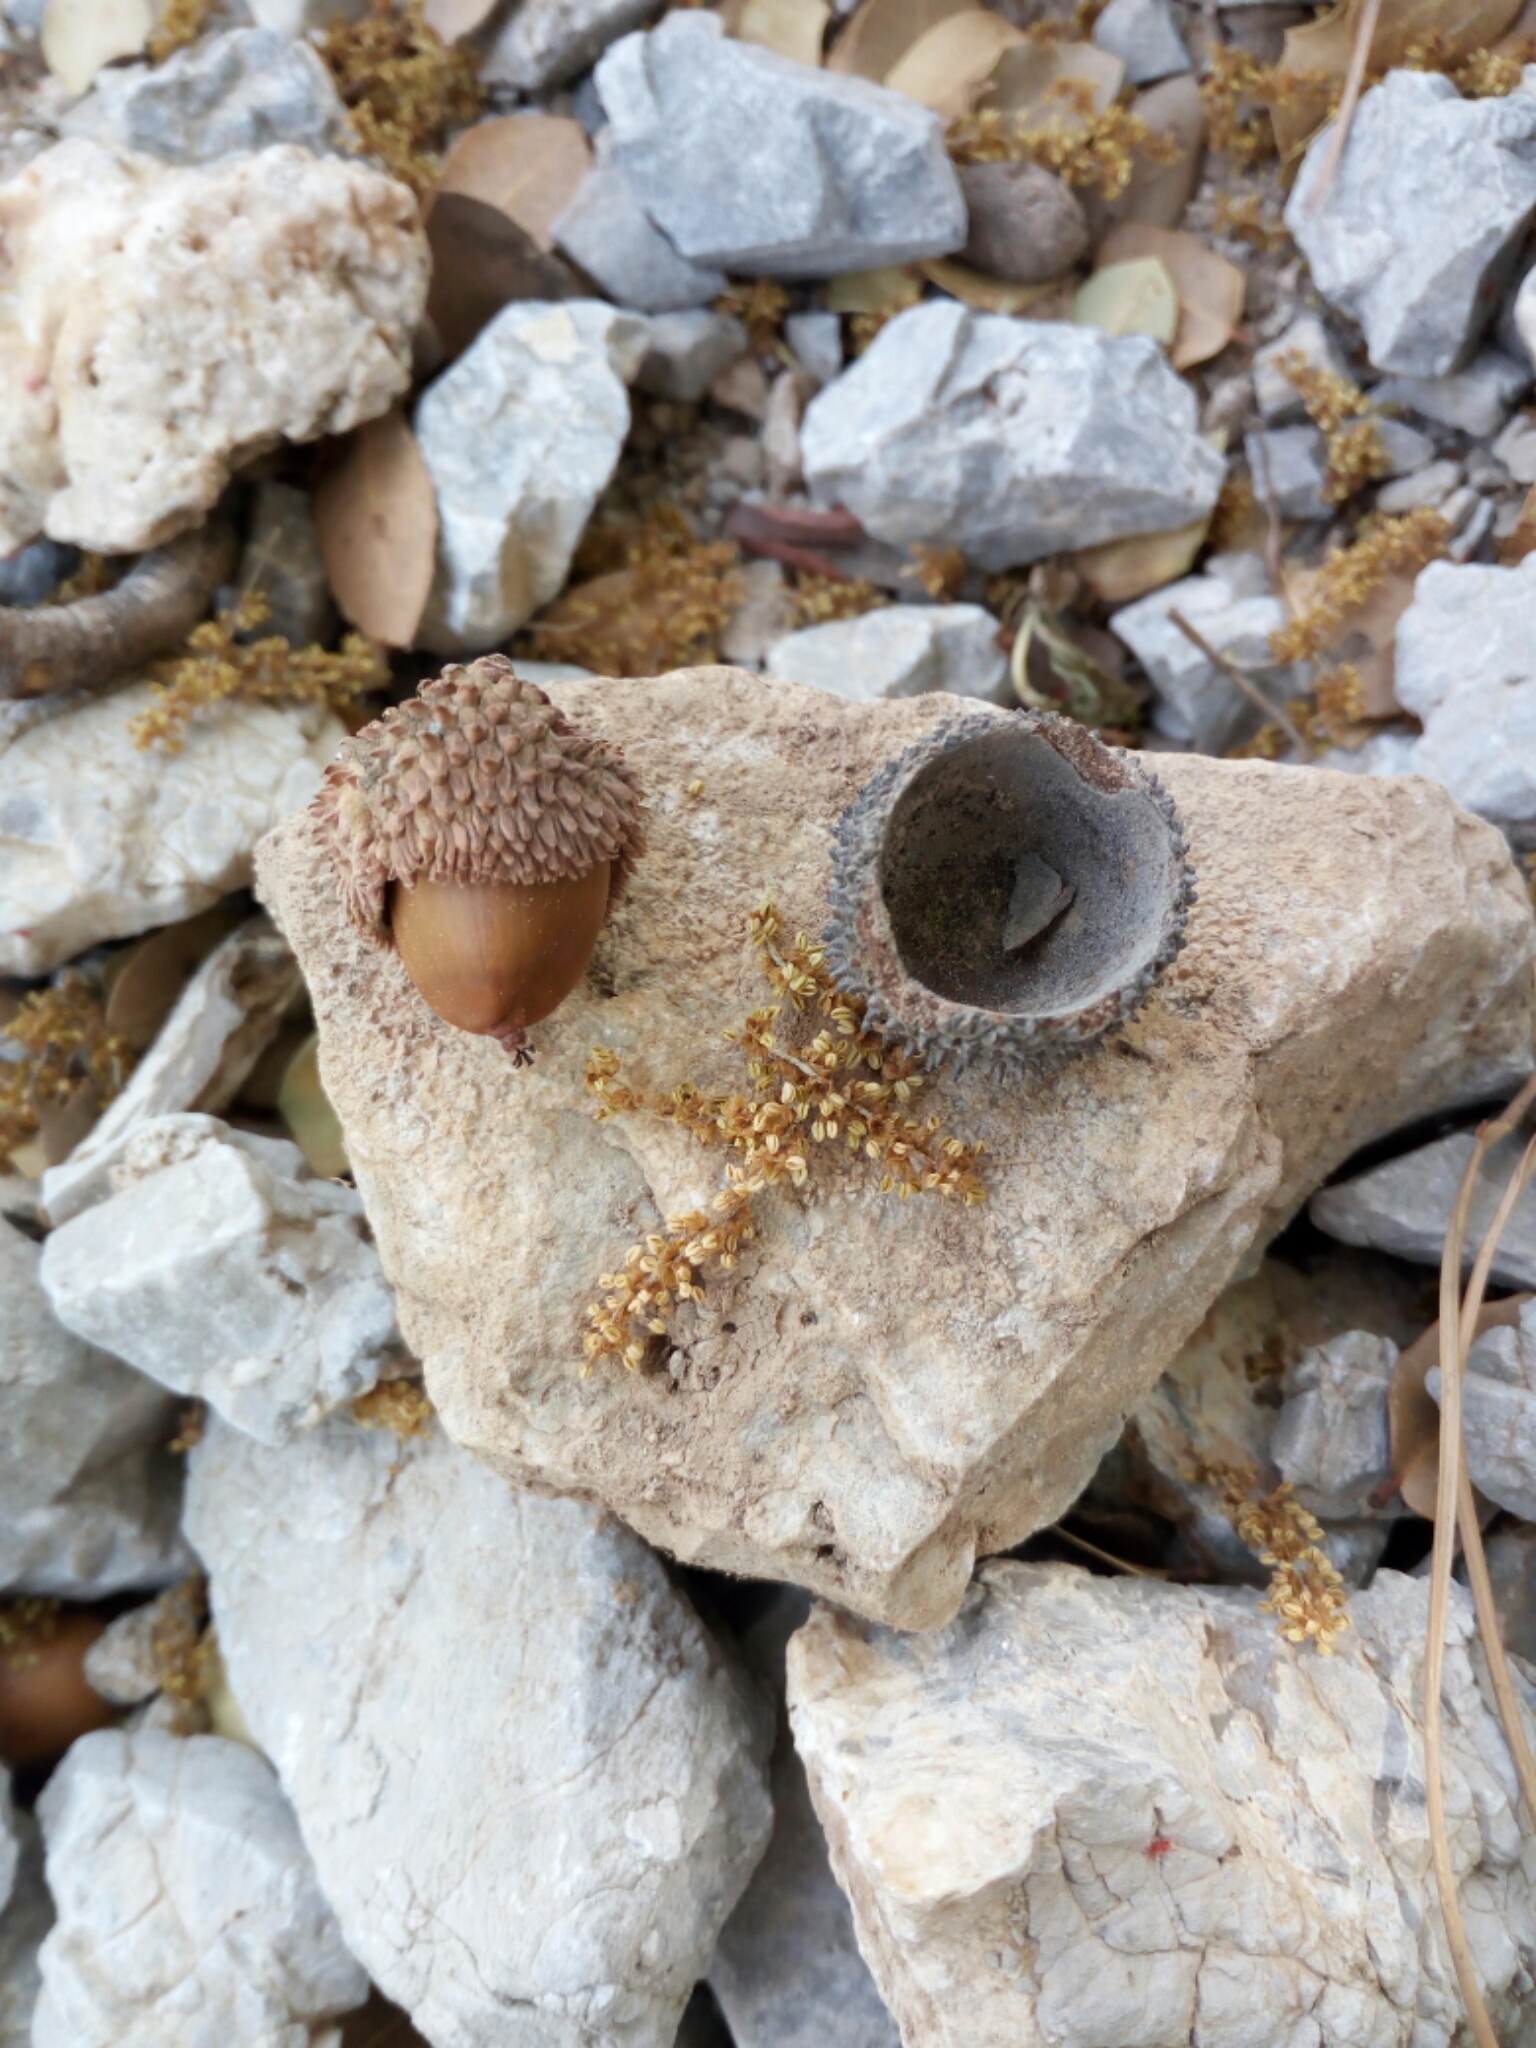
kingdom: Plantae
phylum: Tracheophyta
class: Magnoliopsida
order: Fagales
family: Fagaceae
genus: Quercus
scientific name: Quercus coccifera
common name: Kermes oak
